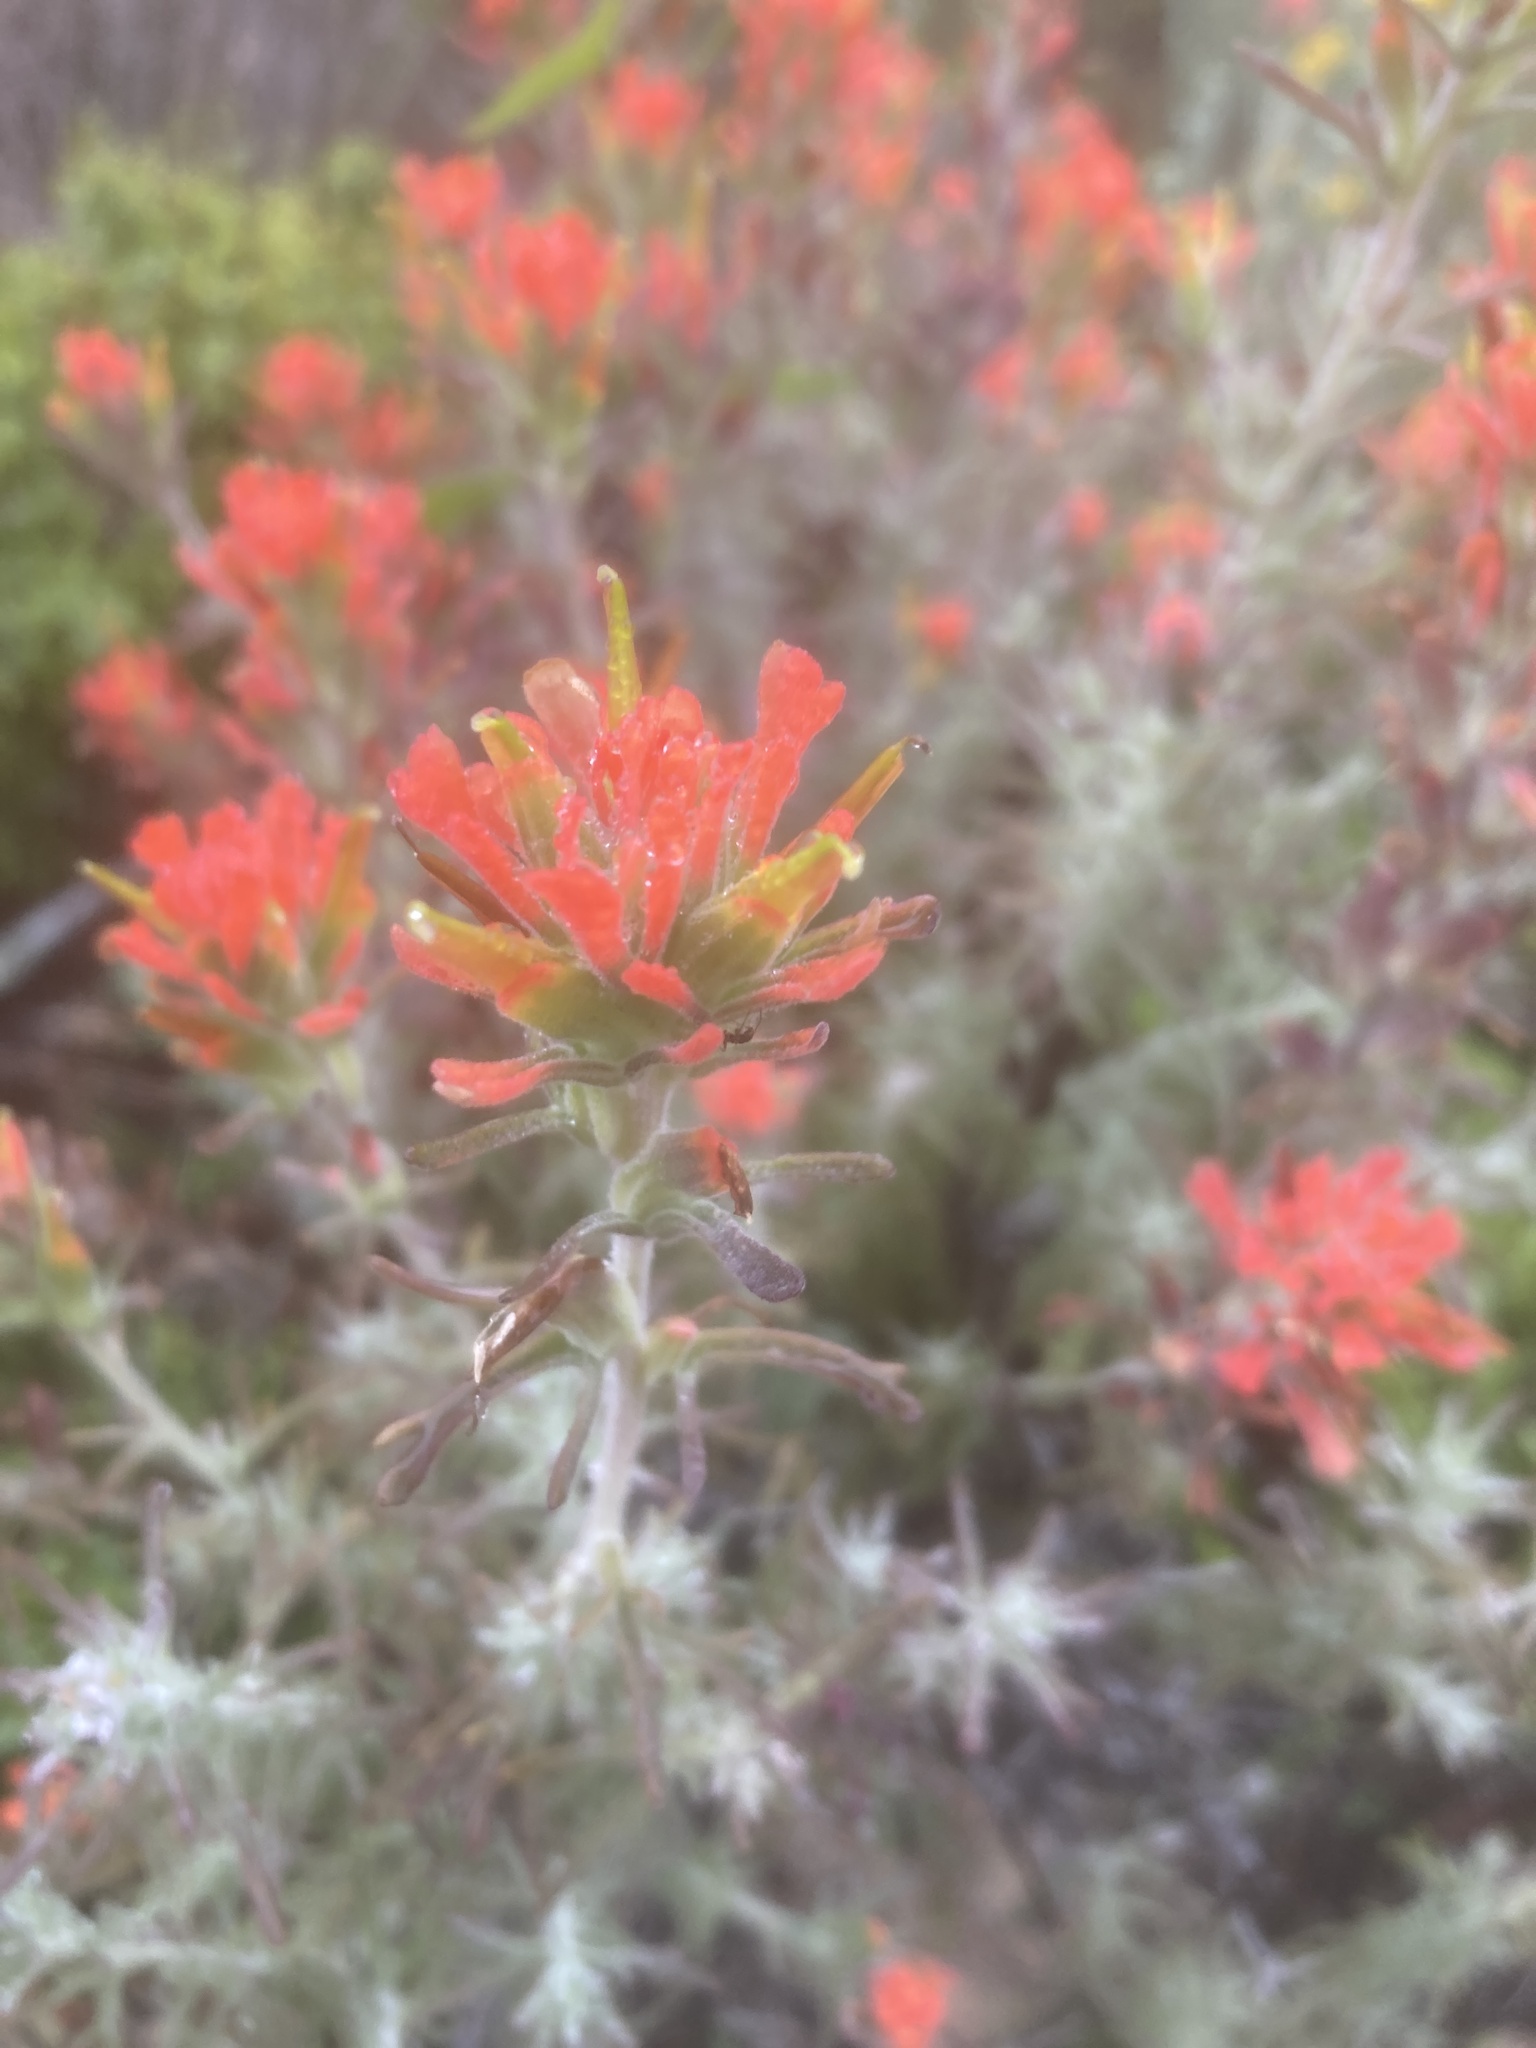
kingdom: Plantae
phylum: Tracheophyta
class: Magnoliopsida
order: Lamiales
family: Orobanchaceae
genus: Castilleja
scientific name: Castilleja foliolosa
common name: Woolly indian paintbrush
